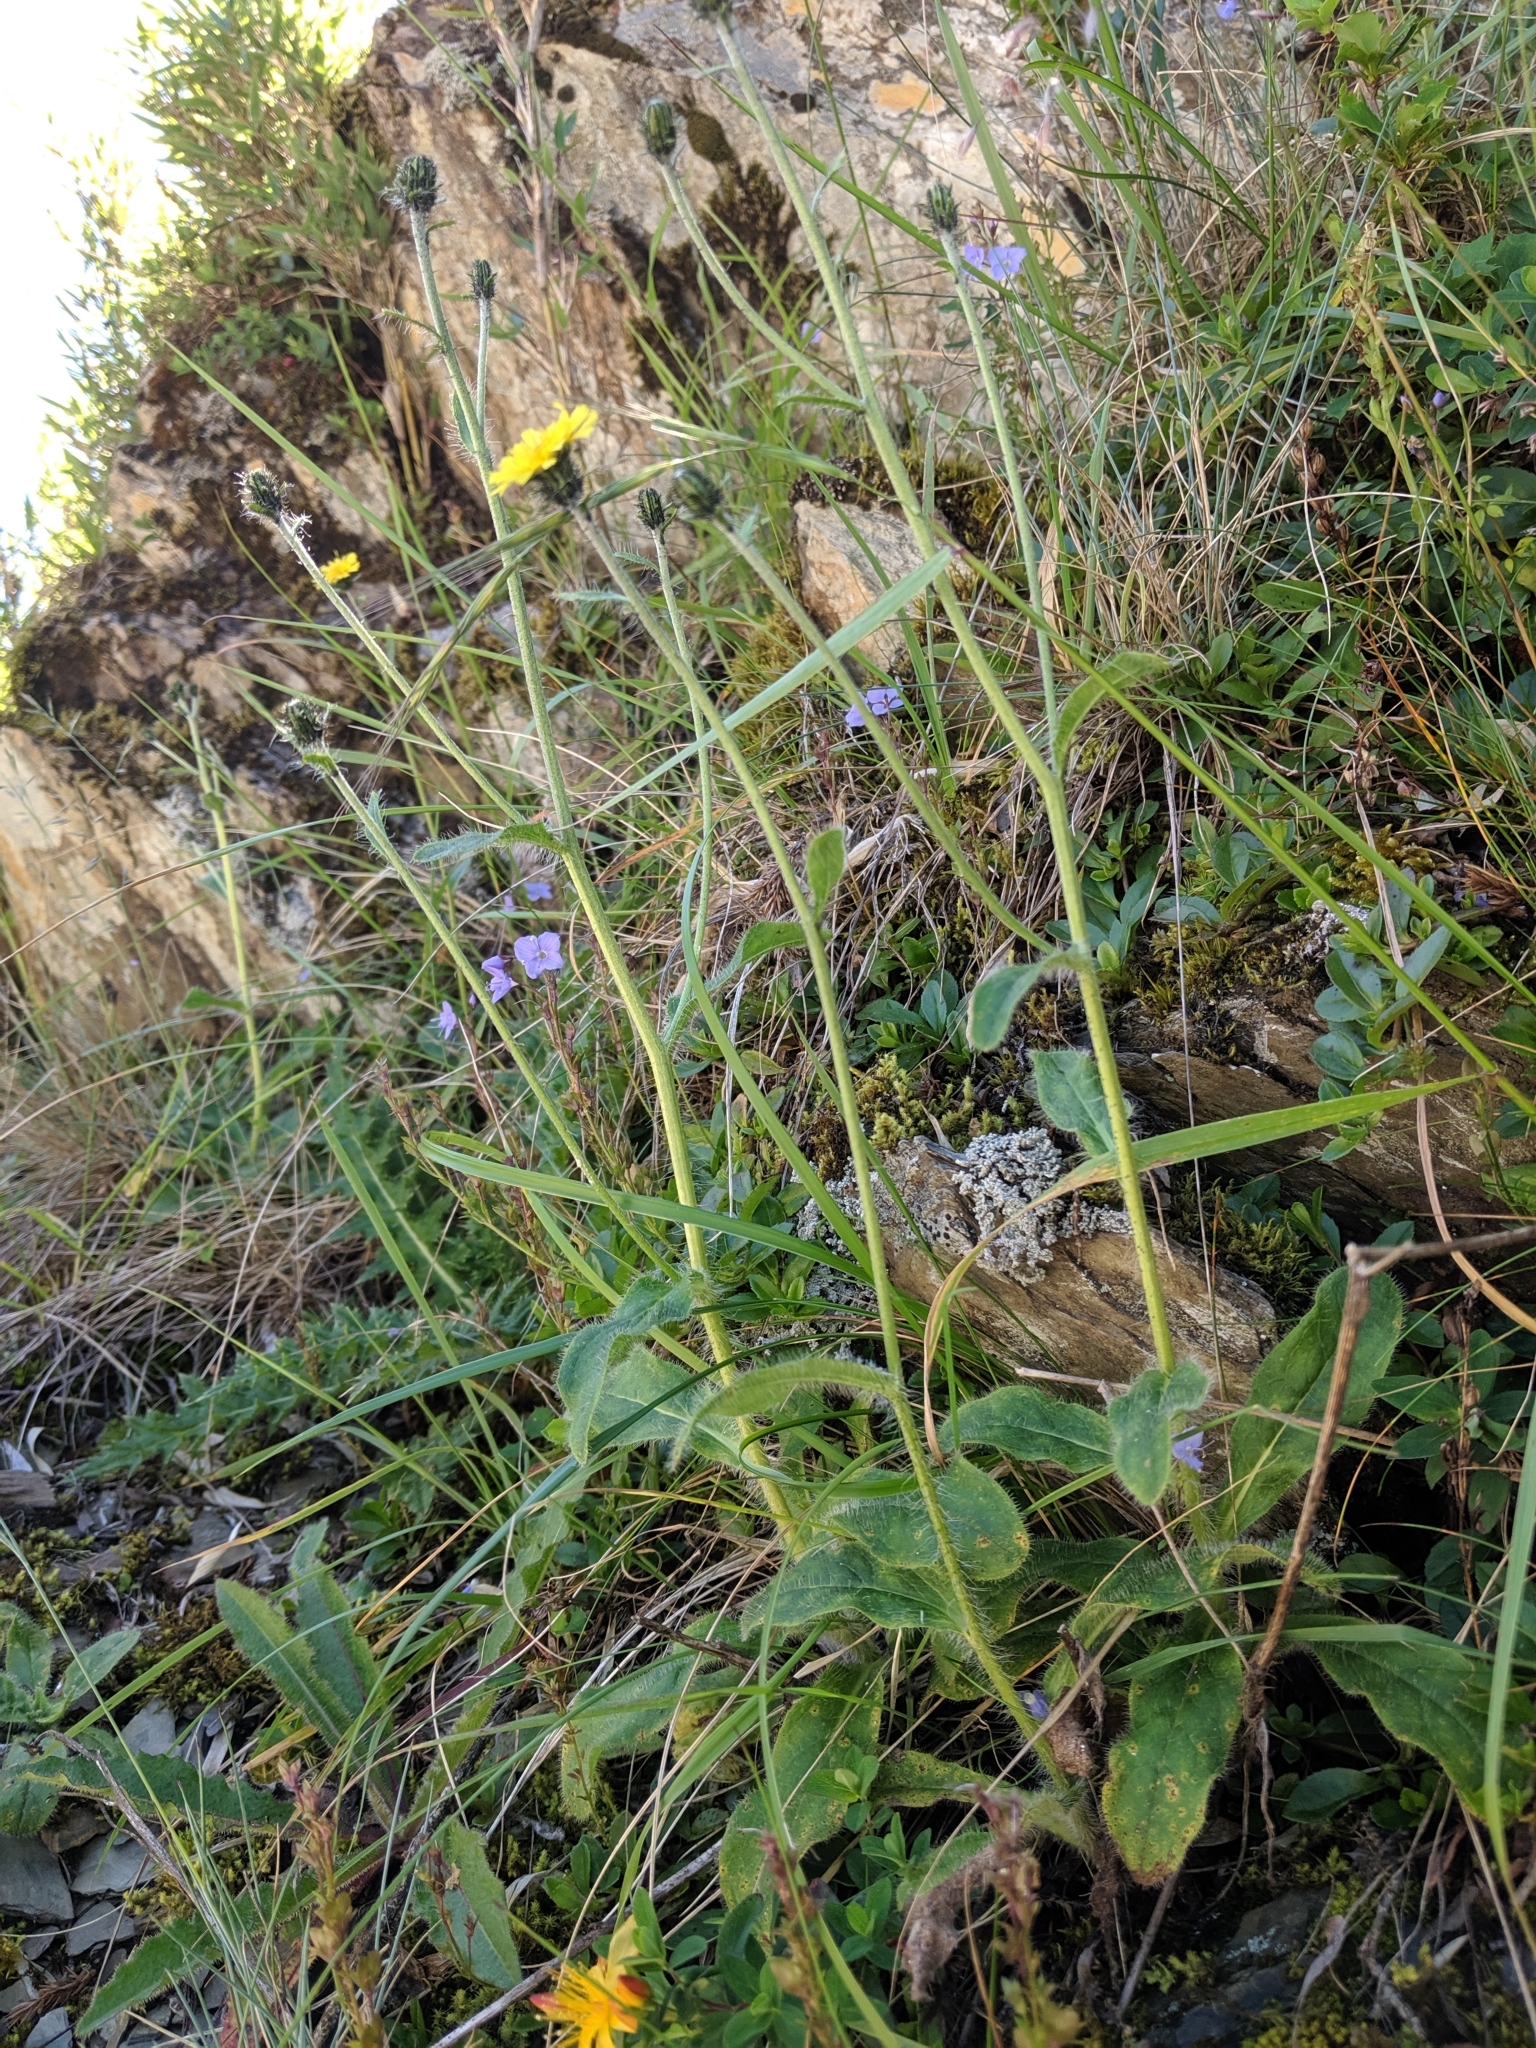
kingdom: Plantae
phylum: Tracheophyta
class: Magnoliopsida
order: Asterales
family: Asteraceae
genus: Hieracium
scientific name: Hieracium morii
